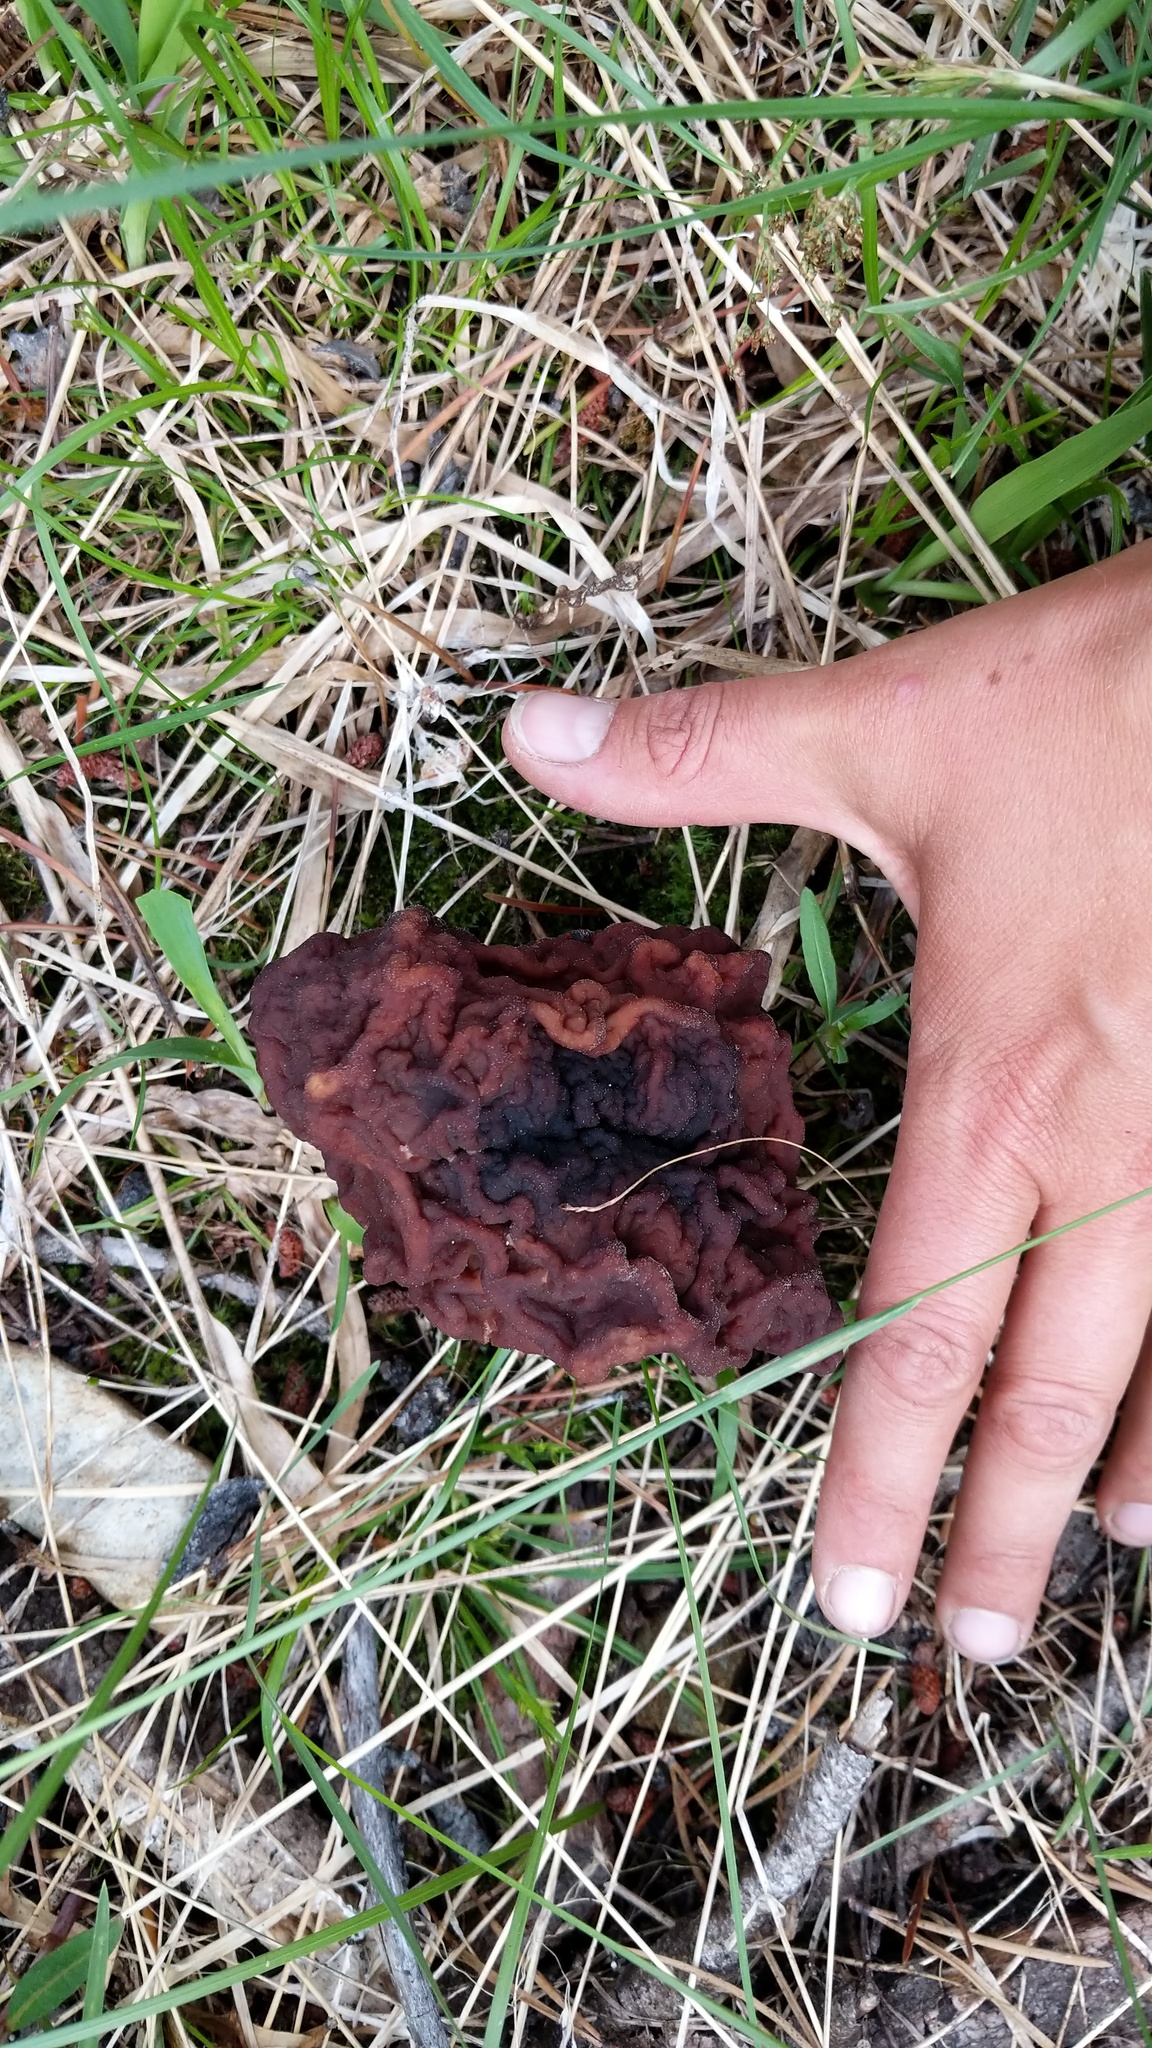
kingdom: Fungi
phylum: Ascomycota
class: Pezizomycetes
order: Pezizales
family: Discinaceae
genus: Gyromitra
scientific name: Gyromitra esculenta
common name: False morel
